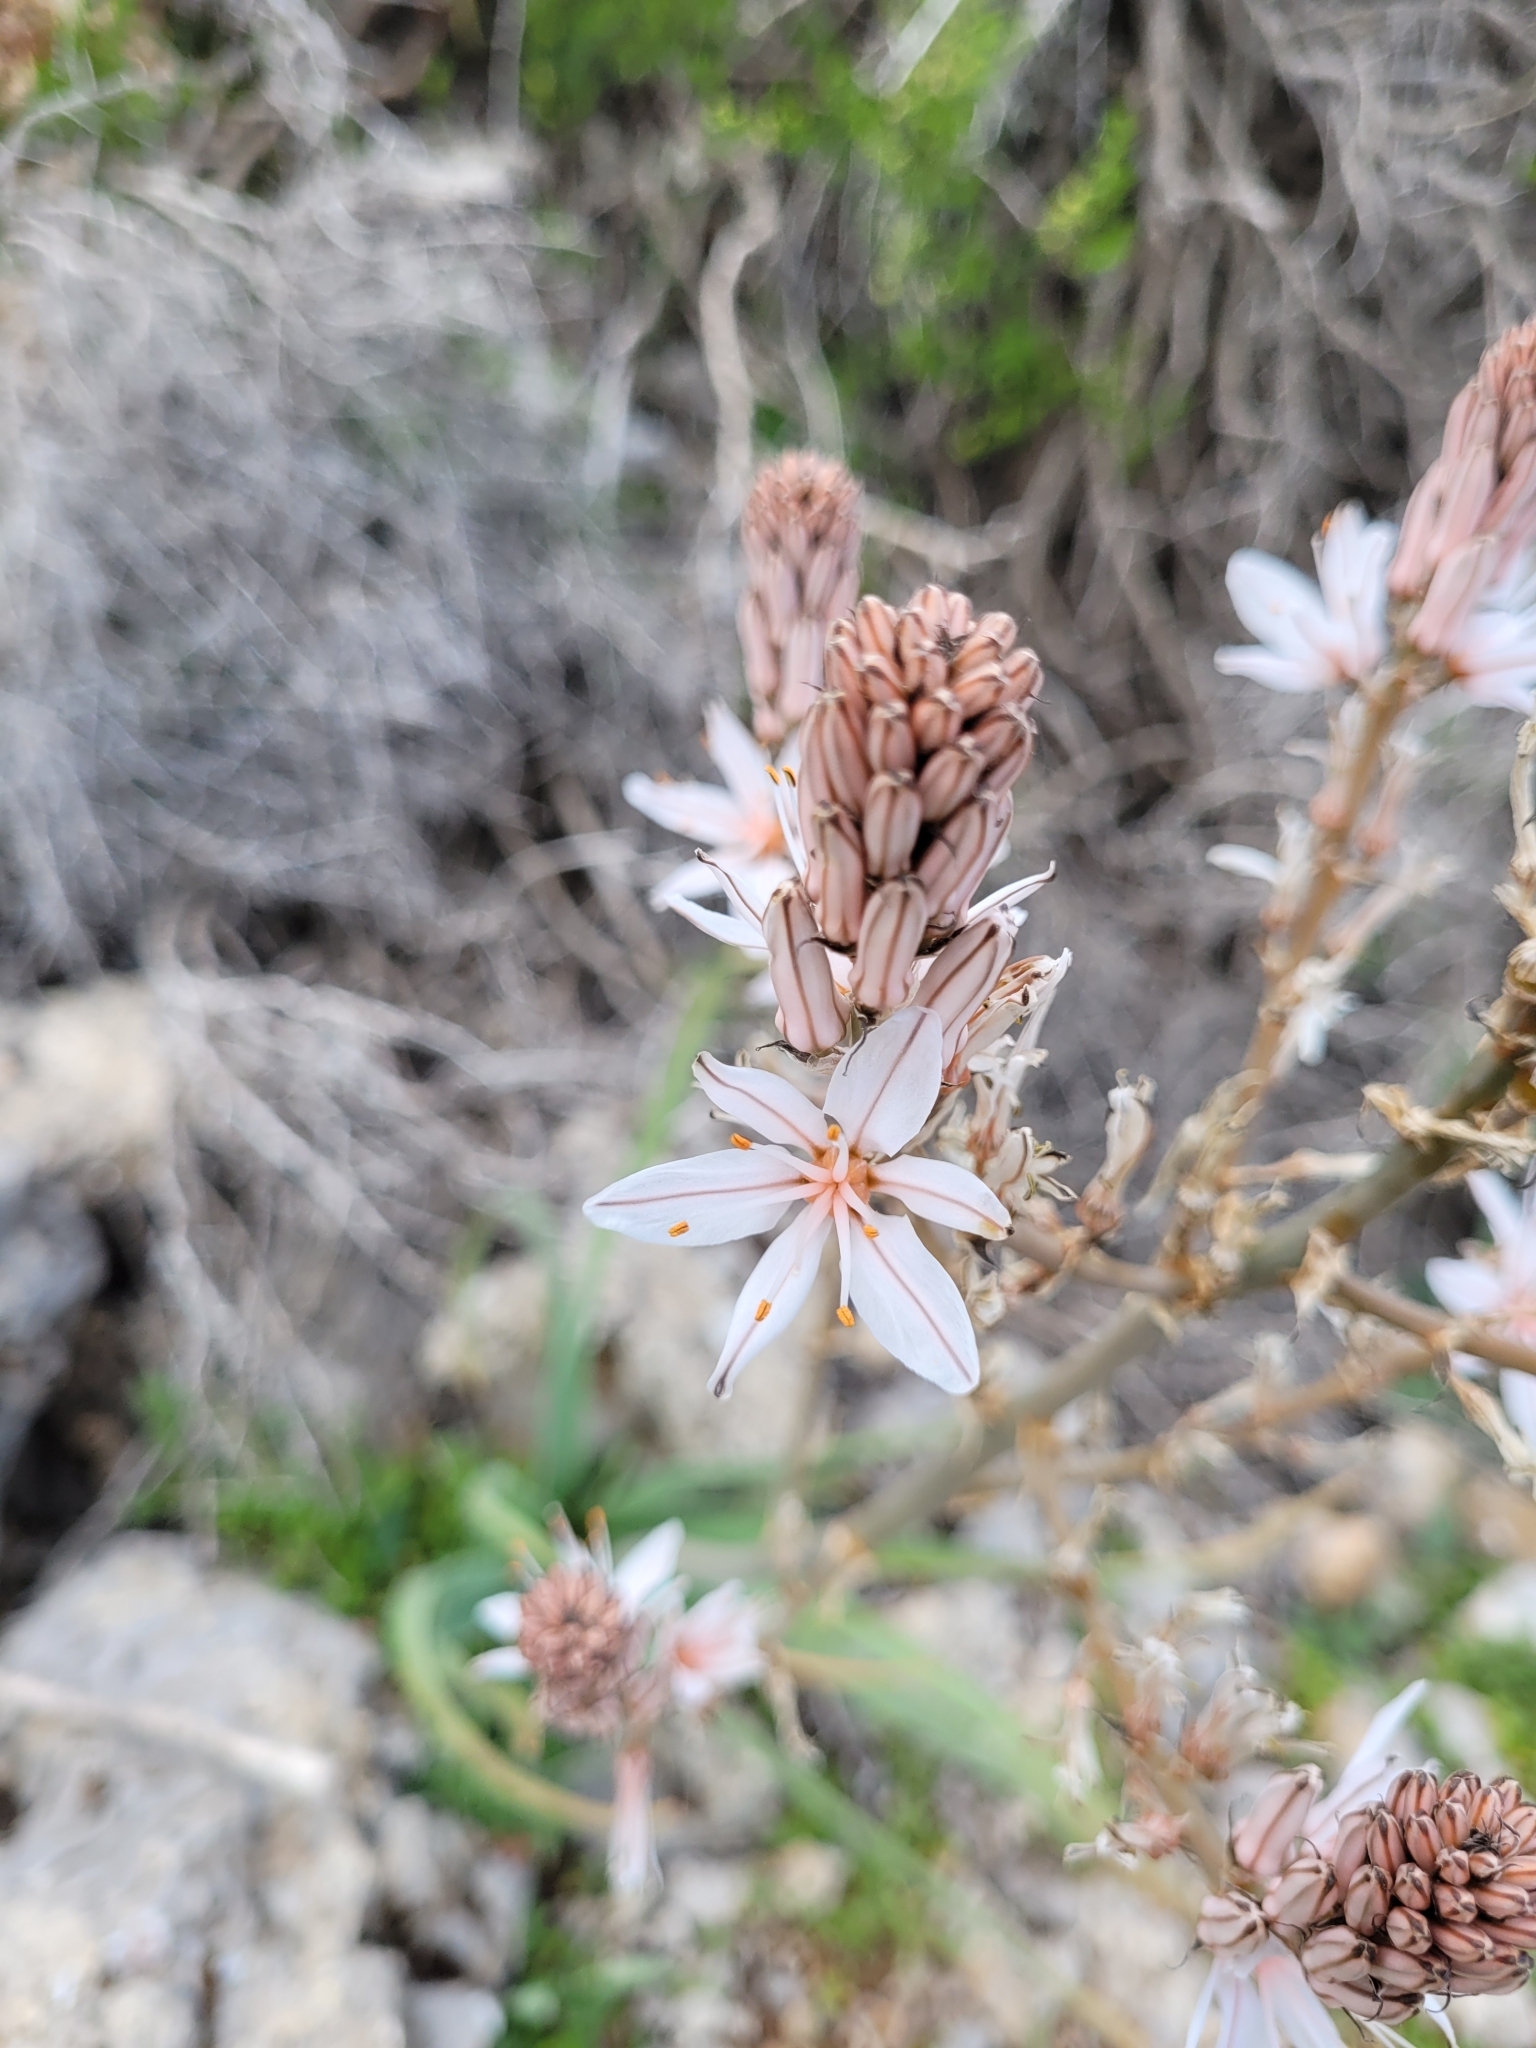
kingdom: Plantae
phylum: Tracheophyta
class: Liliopsida
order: Asparagales
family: Asphodelaceae
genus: Asphodelus
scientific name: Asphodelus ramosus
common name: Silverrod
